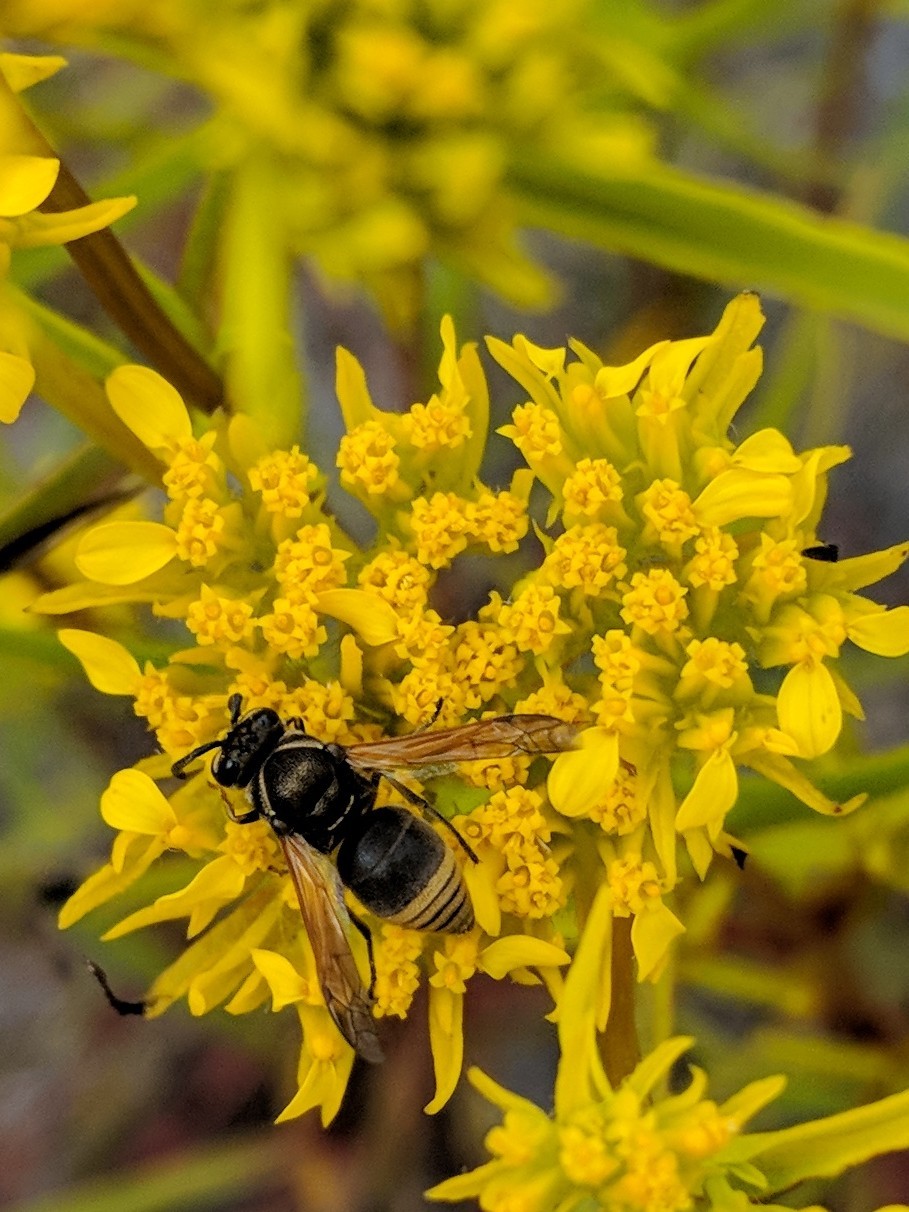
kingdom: Animalia
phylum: Arthropoda
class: Insecta
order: Hymenoptera
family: Eumenidae
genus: Pachodynerus
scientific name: Pachodynerus nasidens
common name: Key hole wasp
